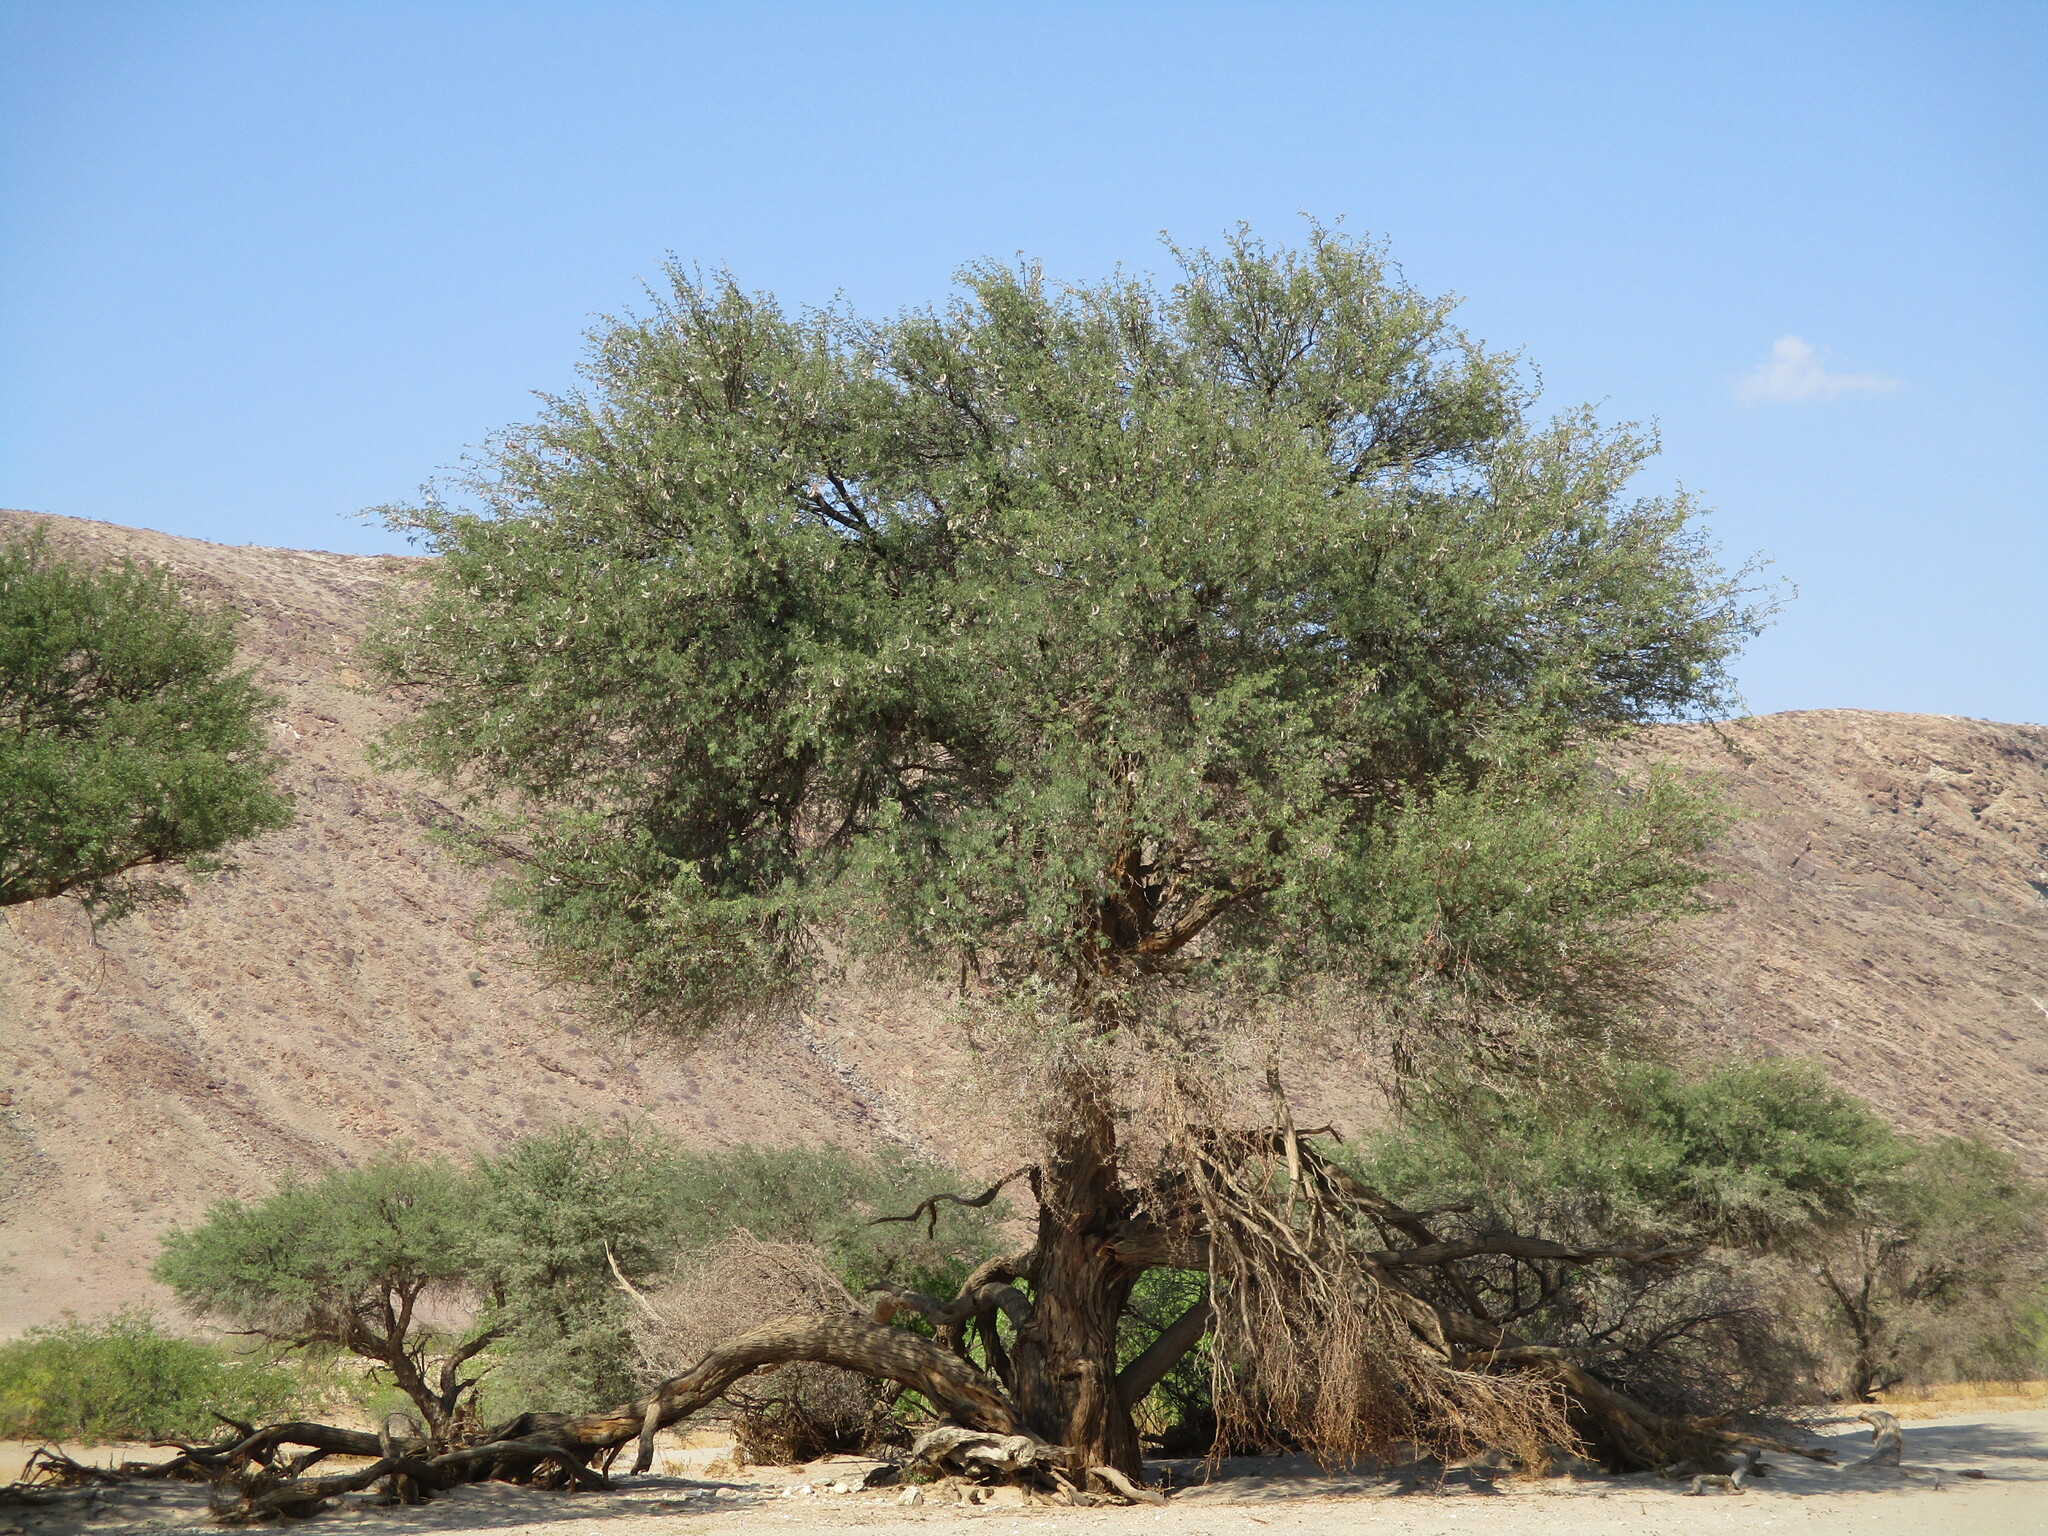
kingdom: Plantae
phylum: Tracheophyta
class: Magnoliopsida
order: Fabales
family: Fabaceae
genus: Vachellia
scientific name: Vachellia erioloba
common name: Camel thorn
